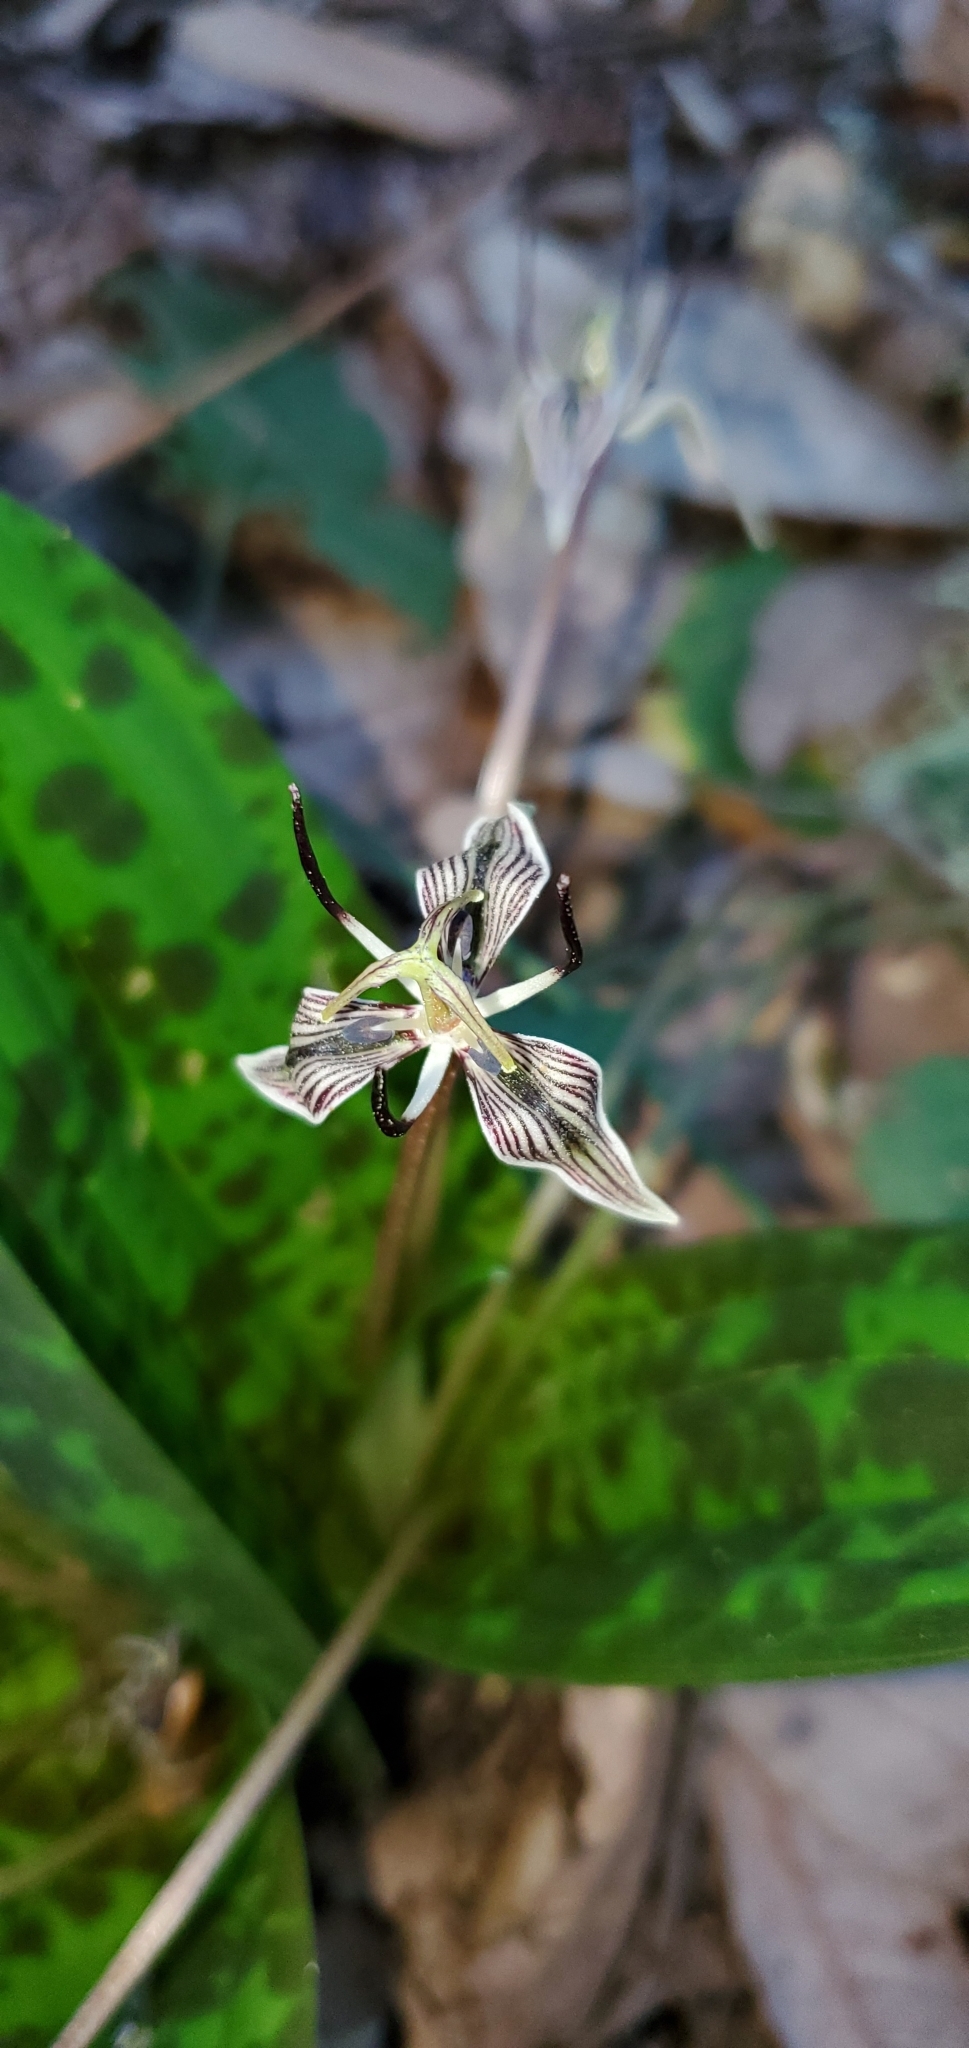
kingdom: Plantae
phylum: Tracheophyta
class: Liliopsida
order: Liliales
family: Liliaceae
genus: Scoliopus
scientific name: Scoliopus bigelovii
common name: Foetid adder's-tongue
